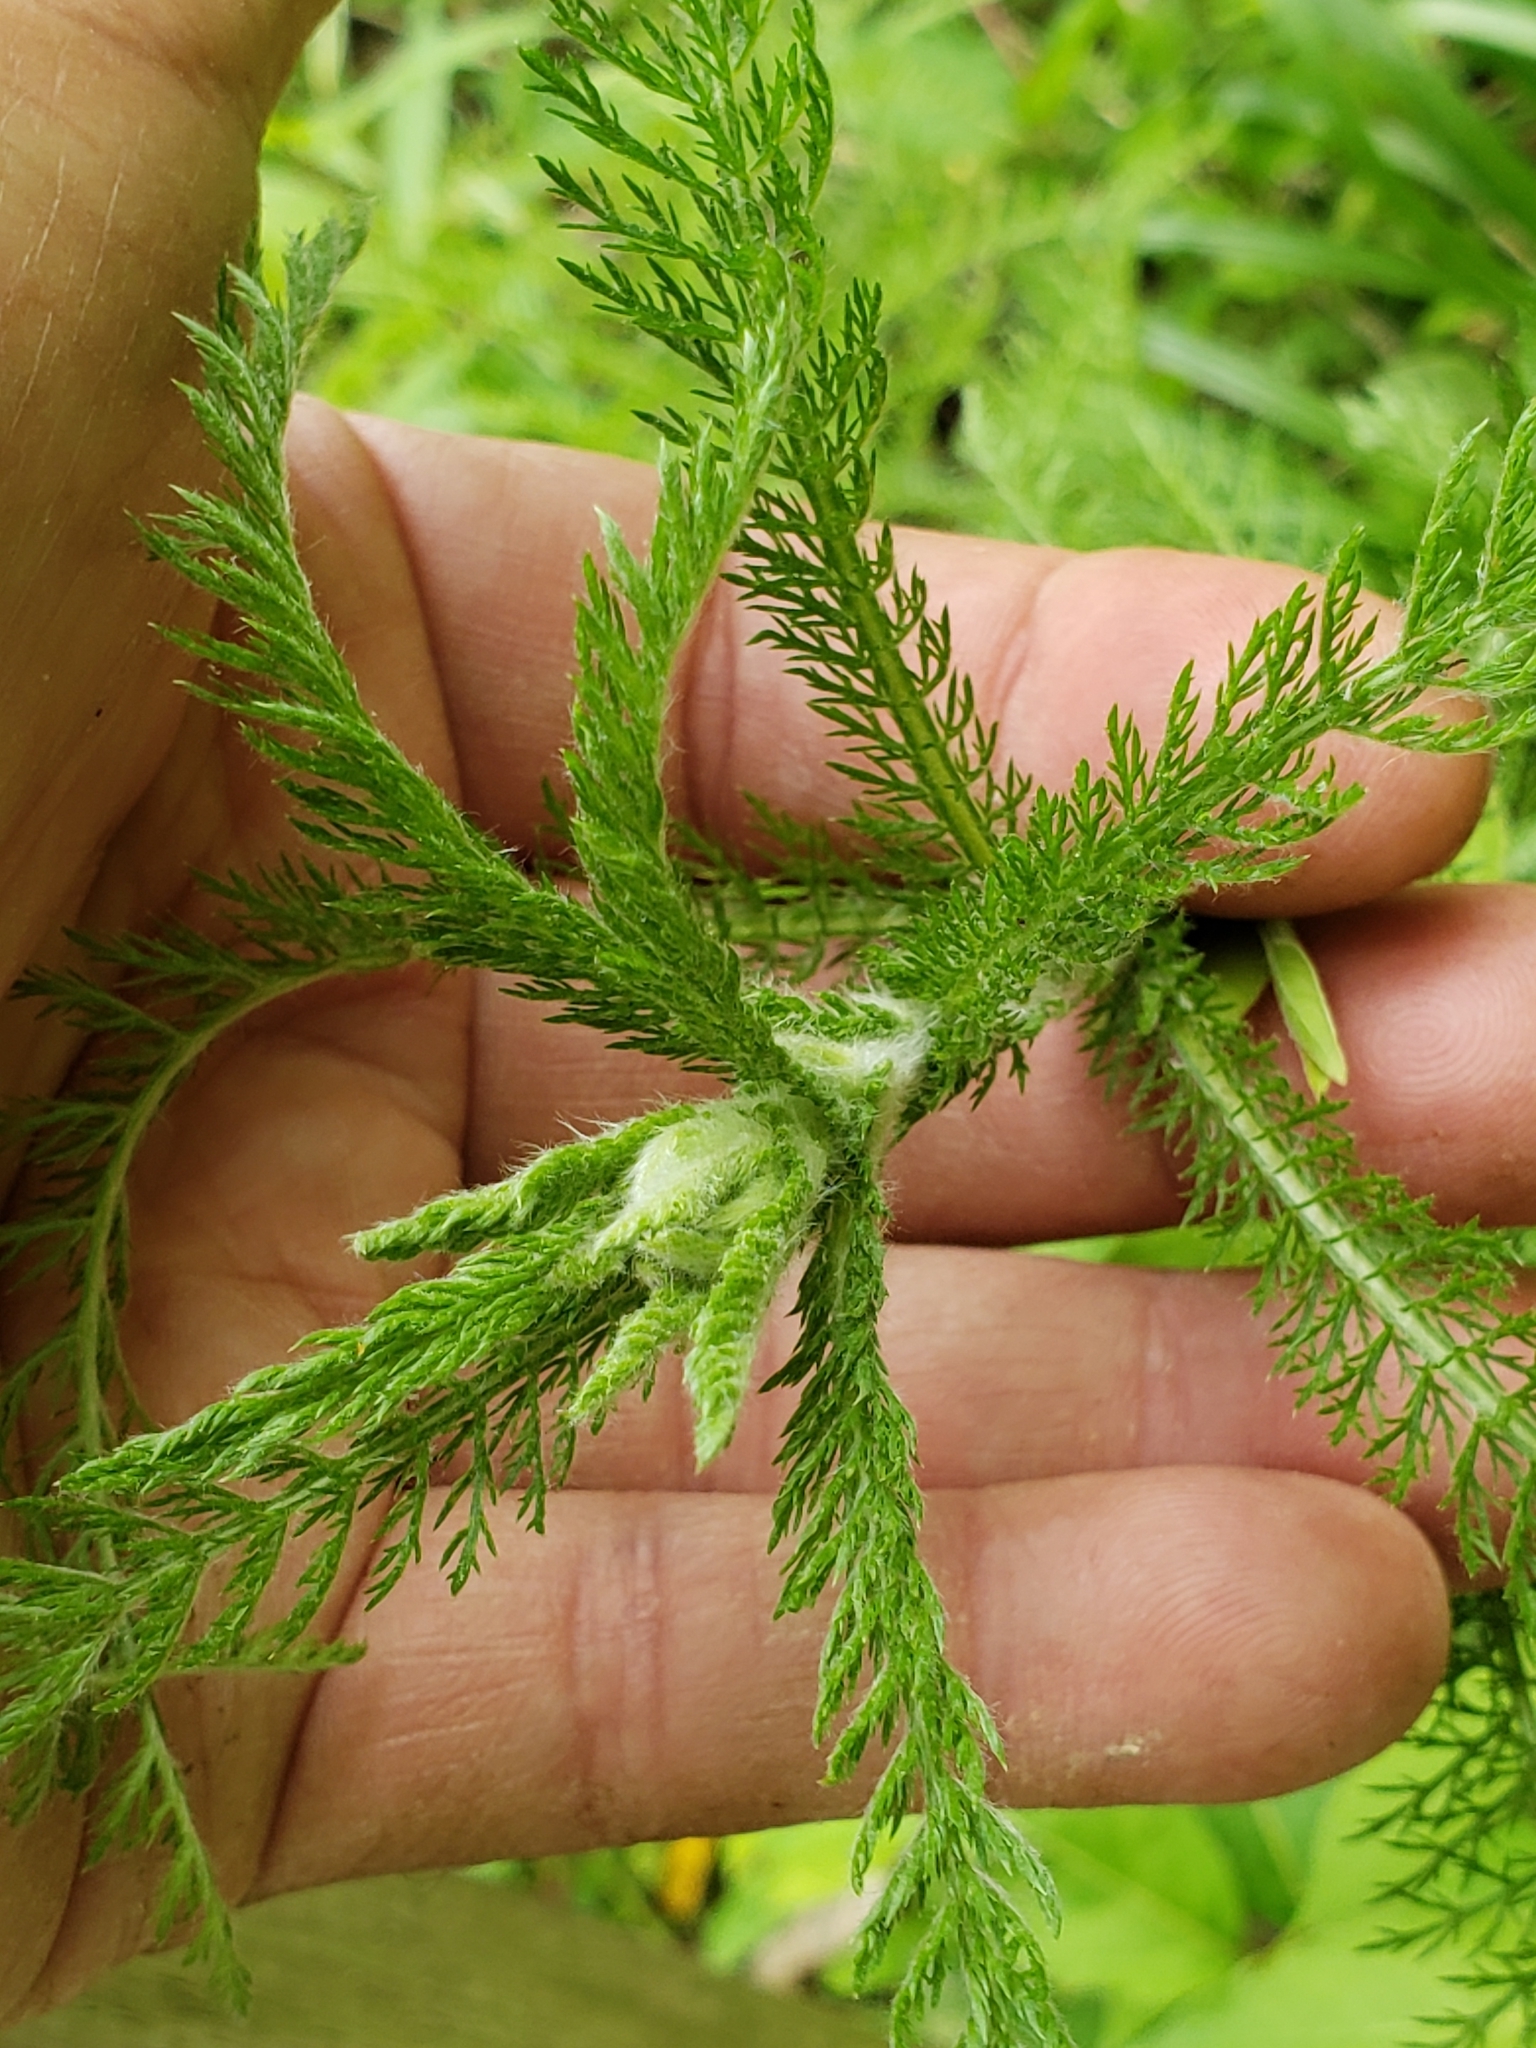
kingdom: Plantae
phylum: Tracheophyta
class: Magnoliopsida
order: Asterales
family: Asteraceae
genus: Achillea
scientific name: Achillea millefolium
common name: Yarrow
